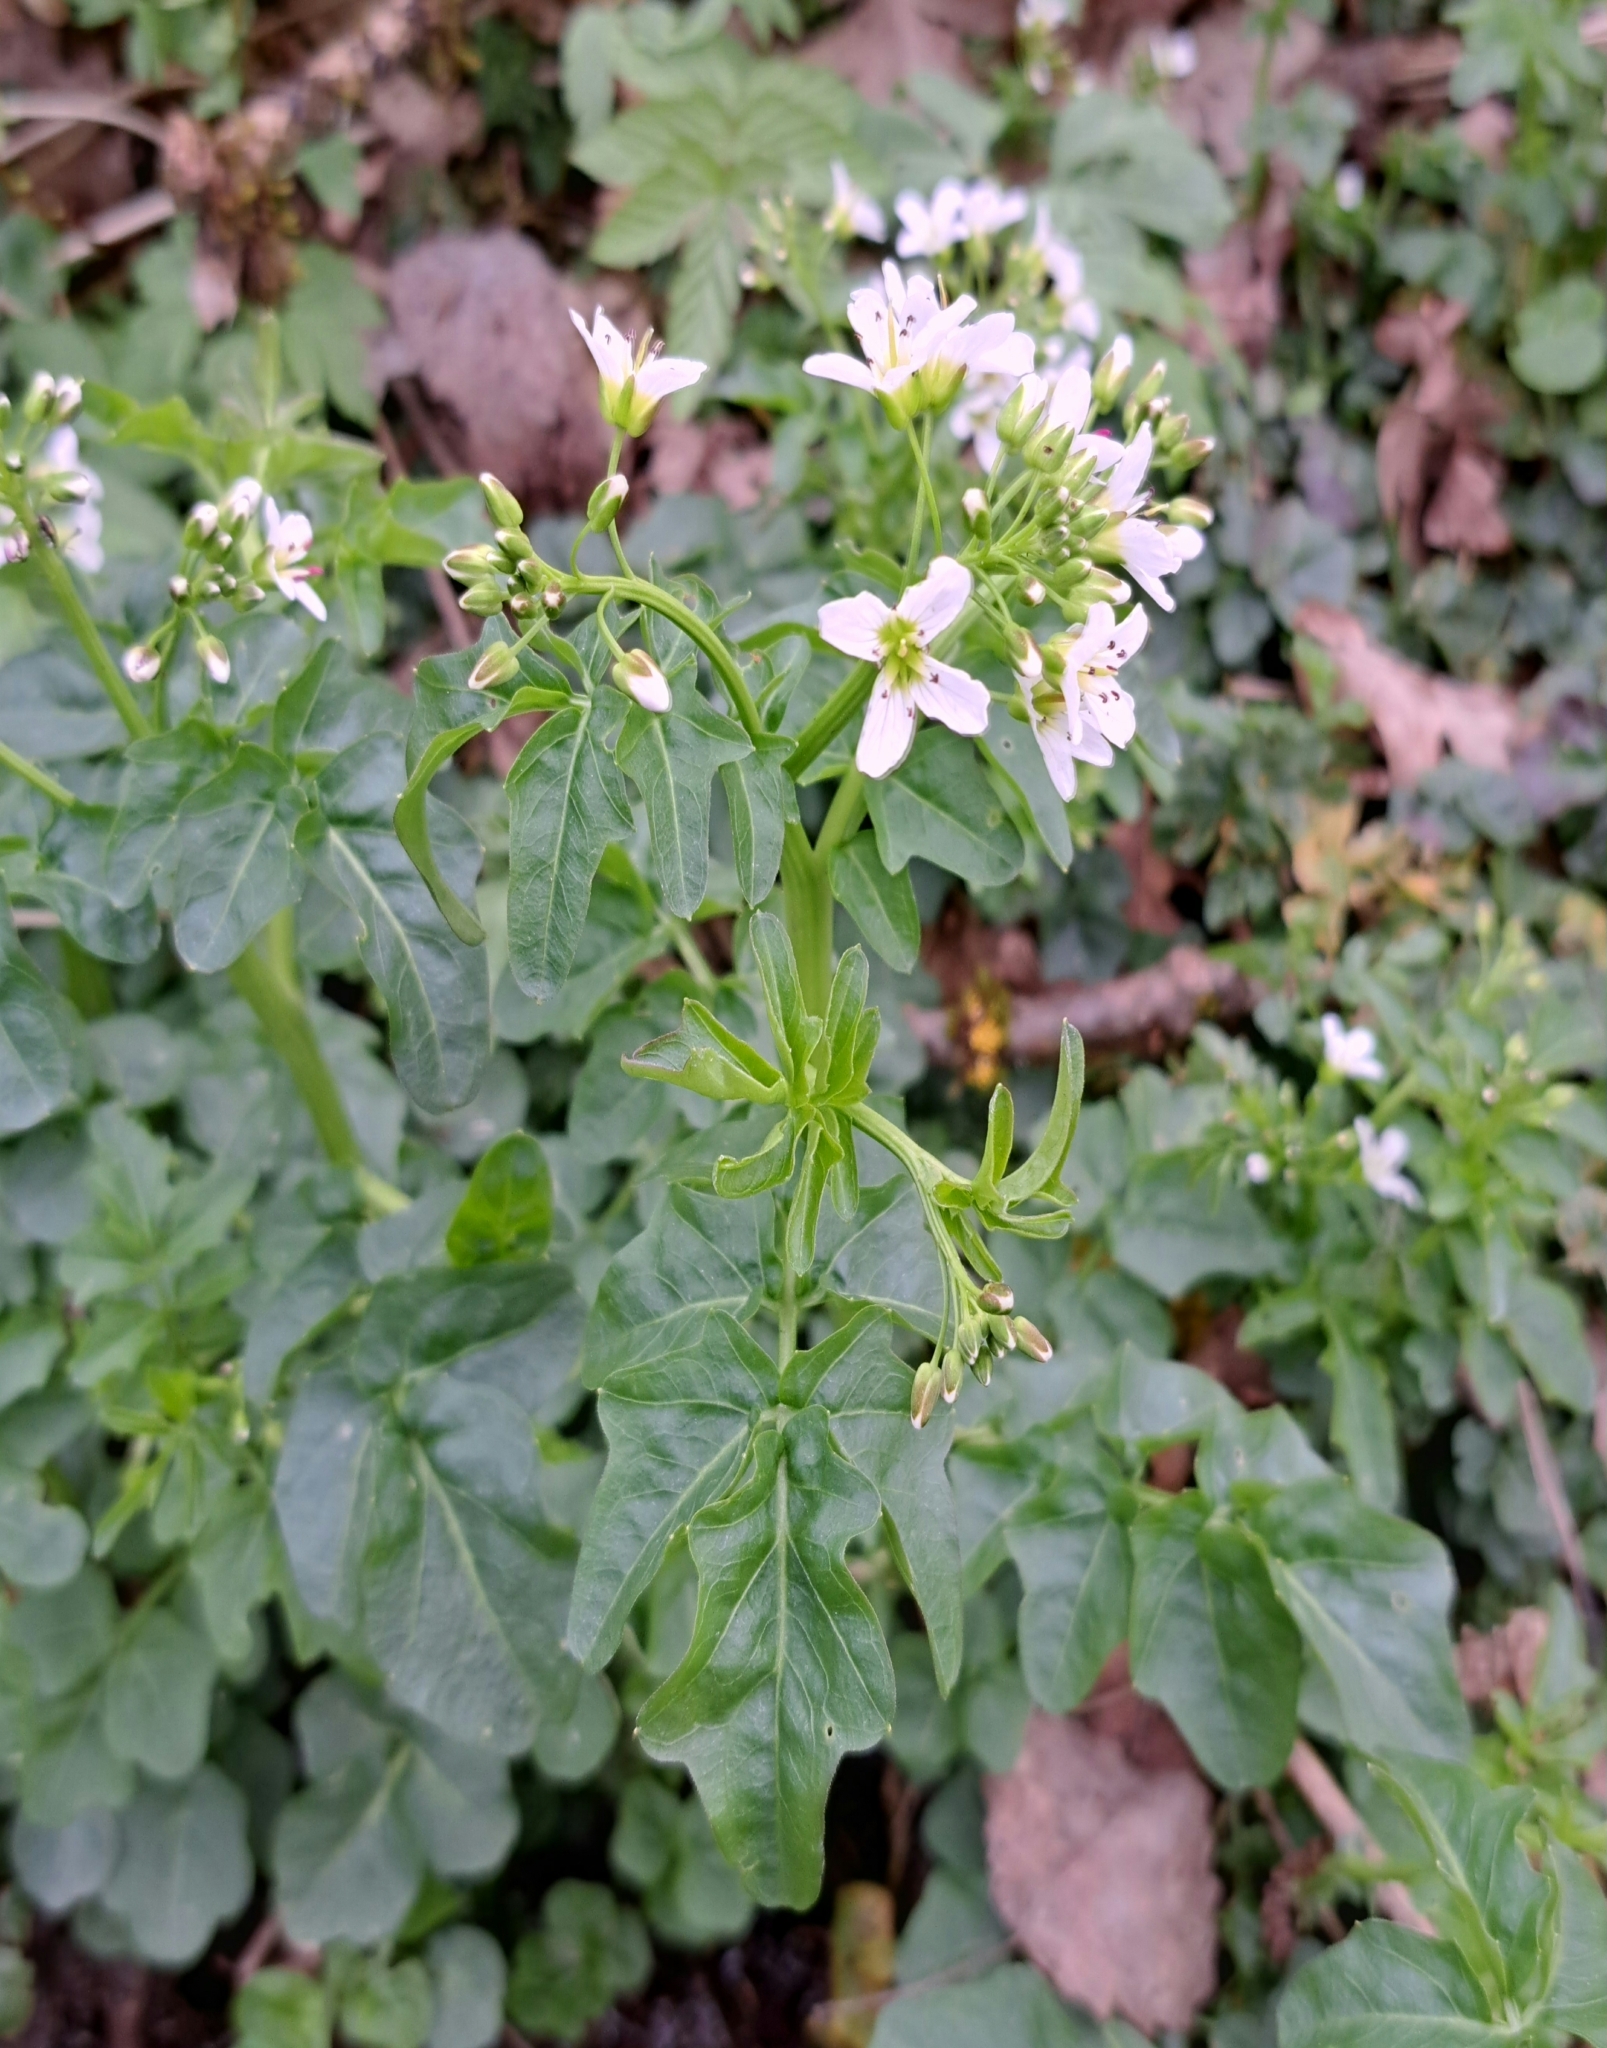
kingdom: Plantae
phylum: Tracheophyta
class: Magnoliopsida
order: Brassicales
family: Brassicaceae
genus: Cardamine
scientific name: Cardamine amara
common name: Large bitter-cress
